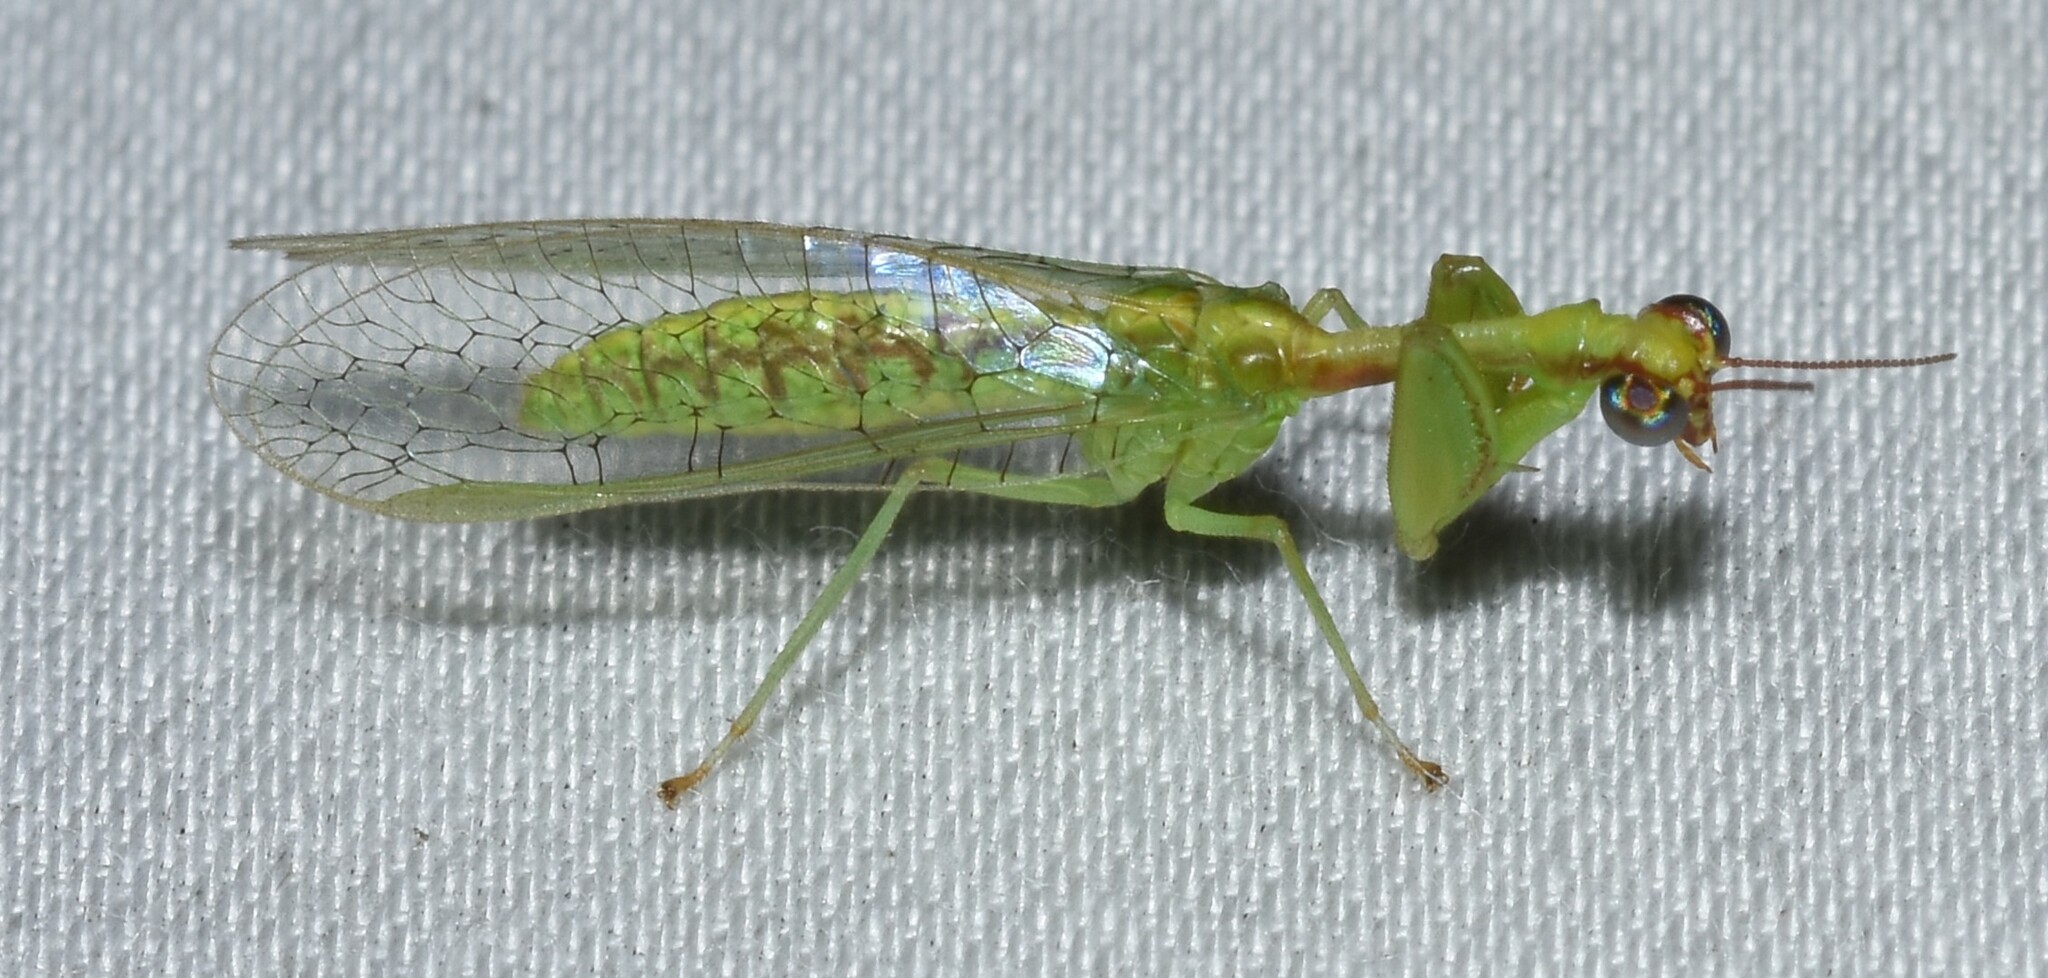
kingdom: Animalia
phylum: Arthropoda
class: Insecta
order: Neuroptera
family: Mantispidae
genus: Zeugomantispa
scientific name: Zeugomantispa minuta
